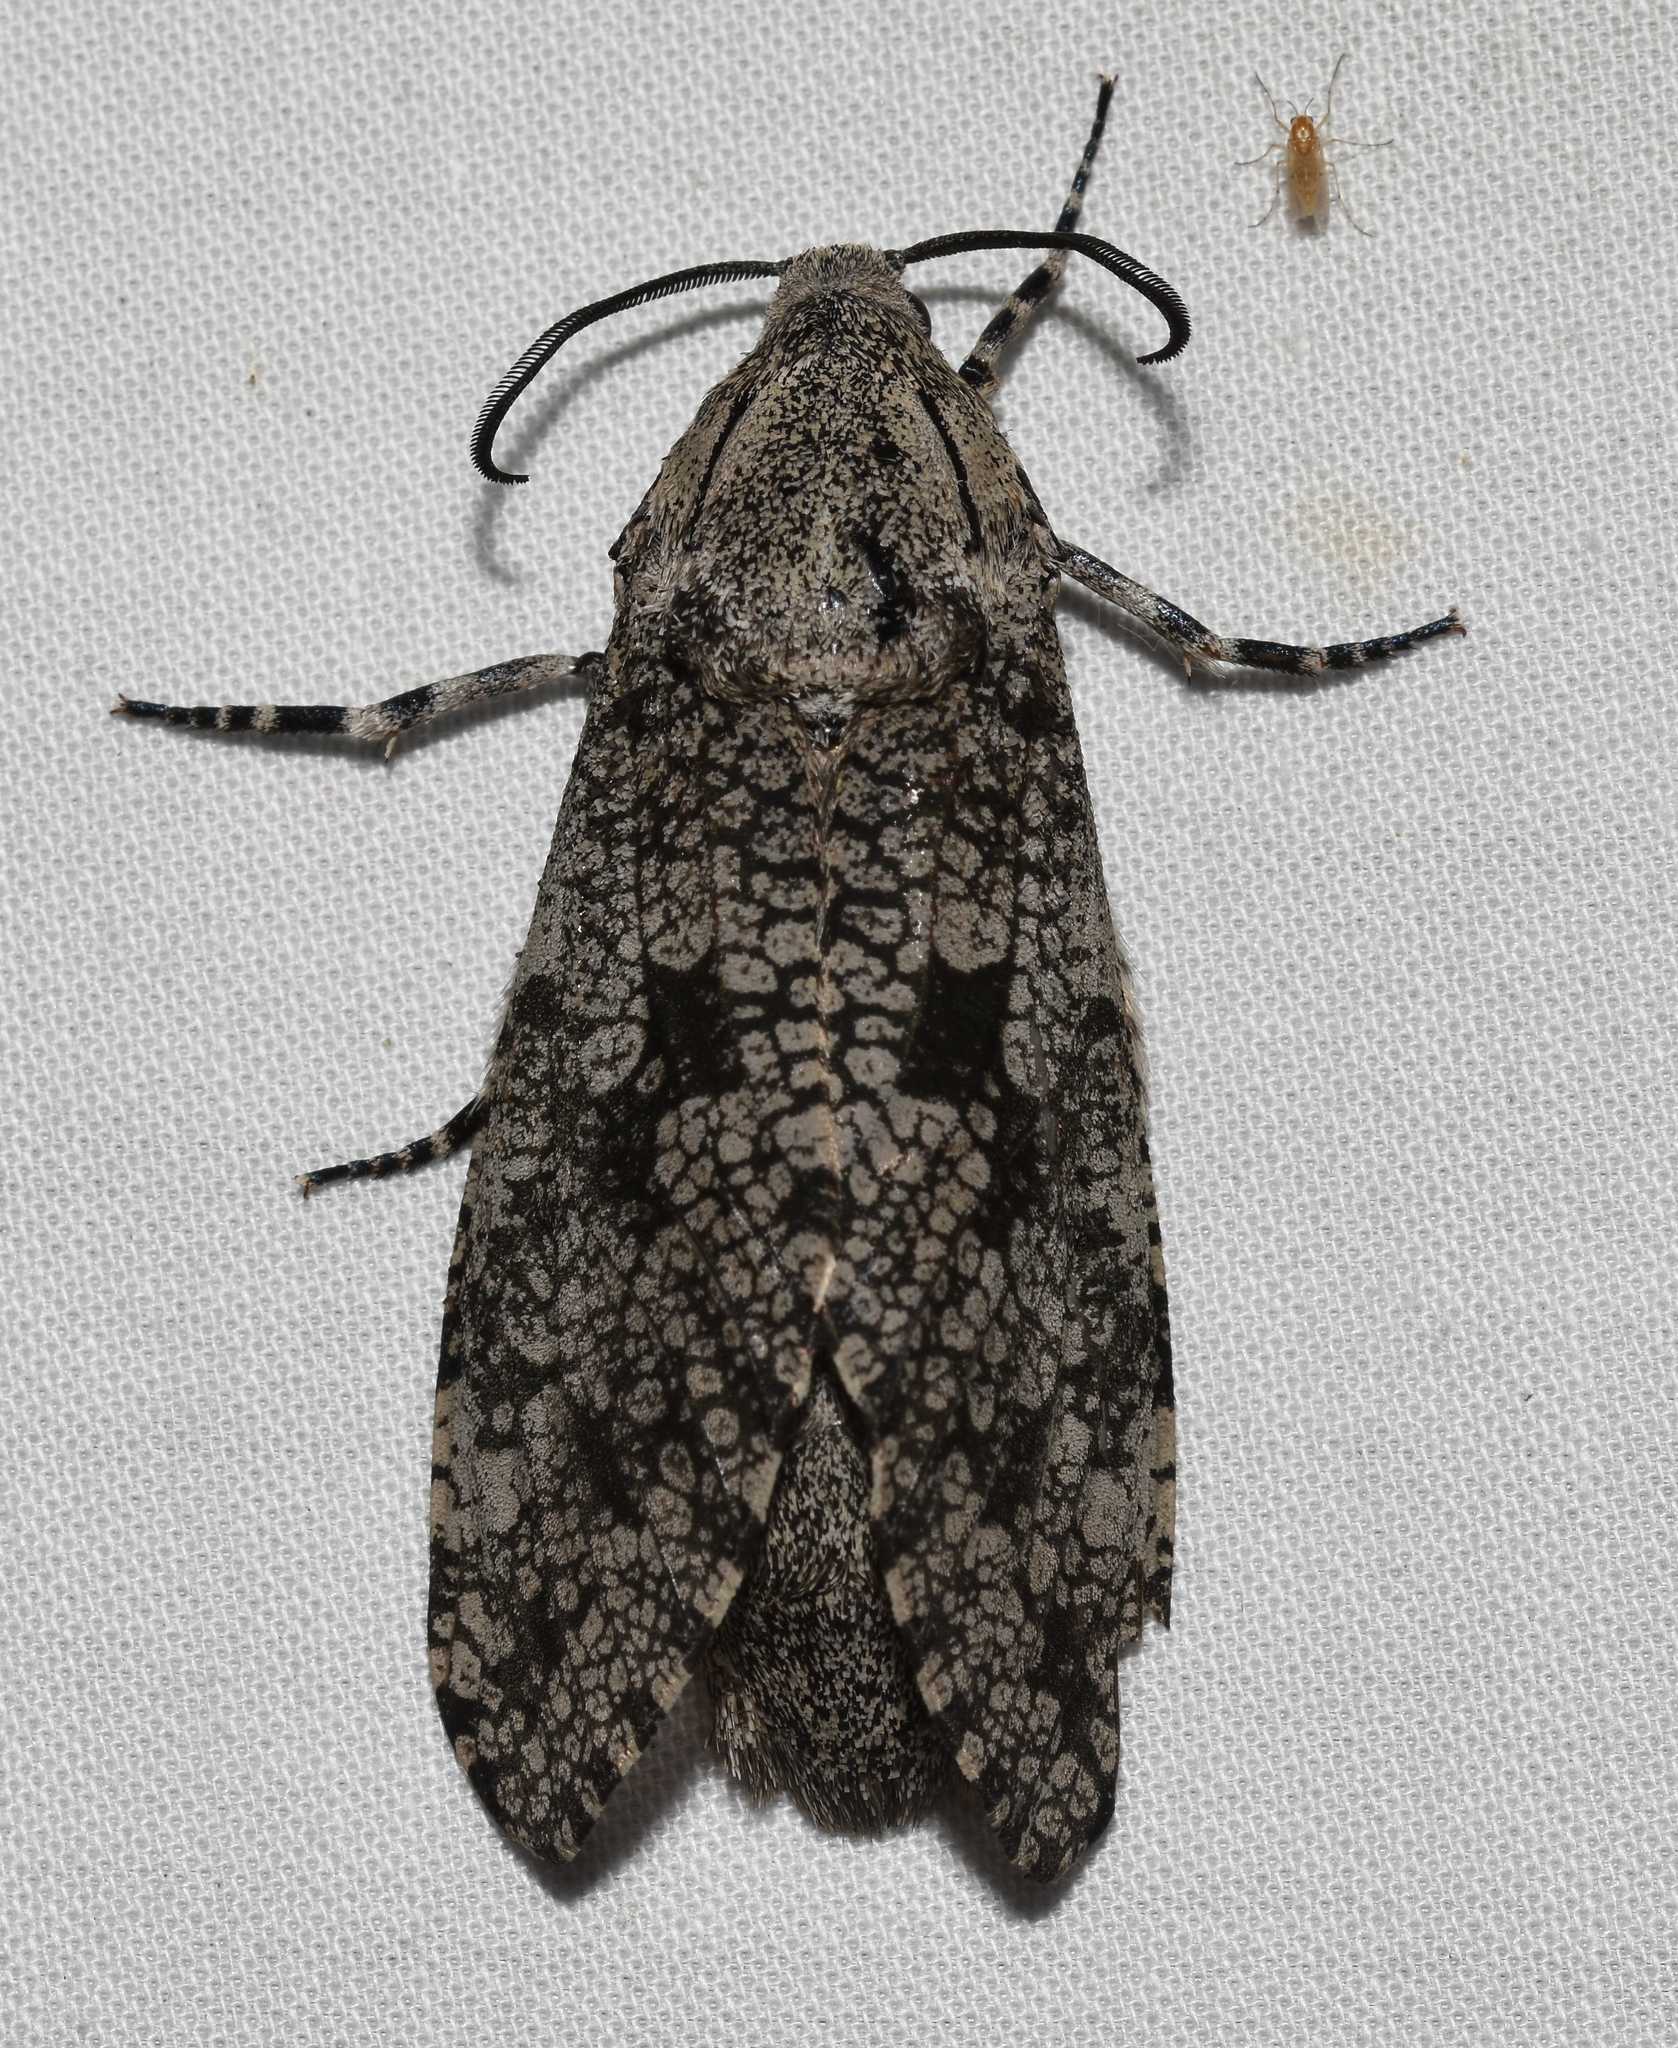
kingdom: Animalia
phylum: Arthropoda
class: Insecta
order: Lepidoptera
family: Cossidae
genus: Prionoxystus
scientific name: Prionoxystus robiniae
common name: Carpenterworm
